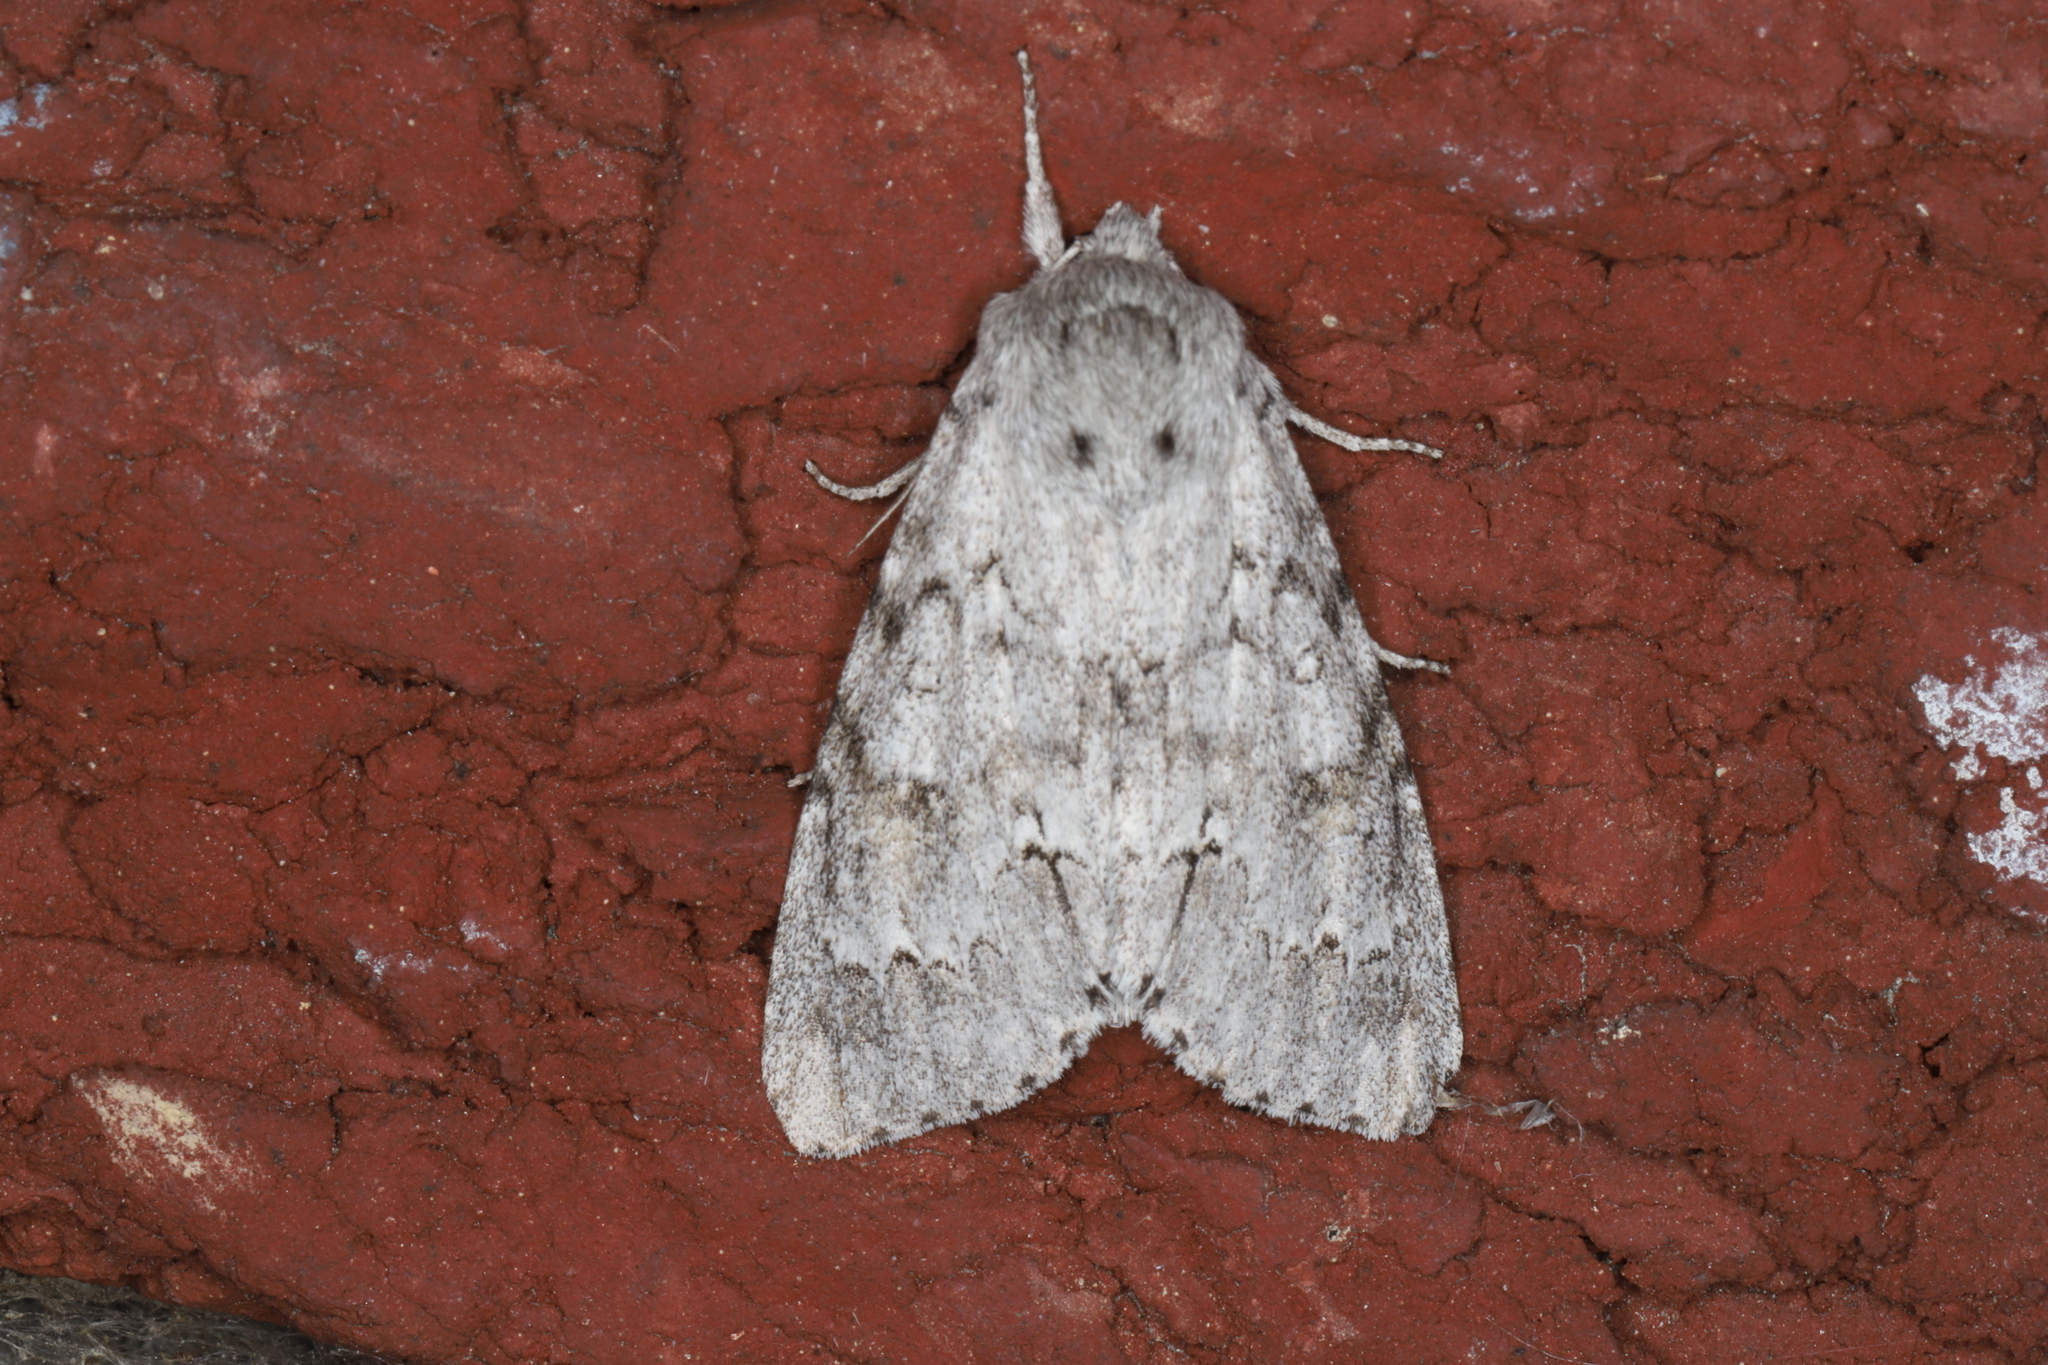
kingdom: Animalia
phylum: Arthropoda
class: Insecta
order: Lepidoptera
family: Noctuidae
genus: Acronicta
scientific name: Acronicta insita
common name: Large gray dagger
